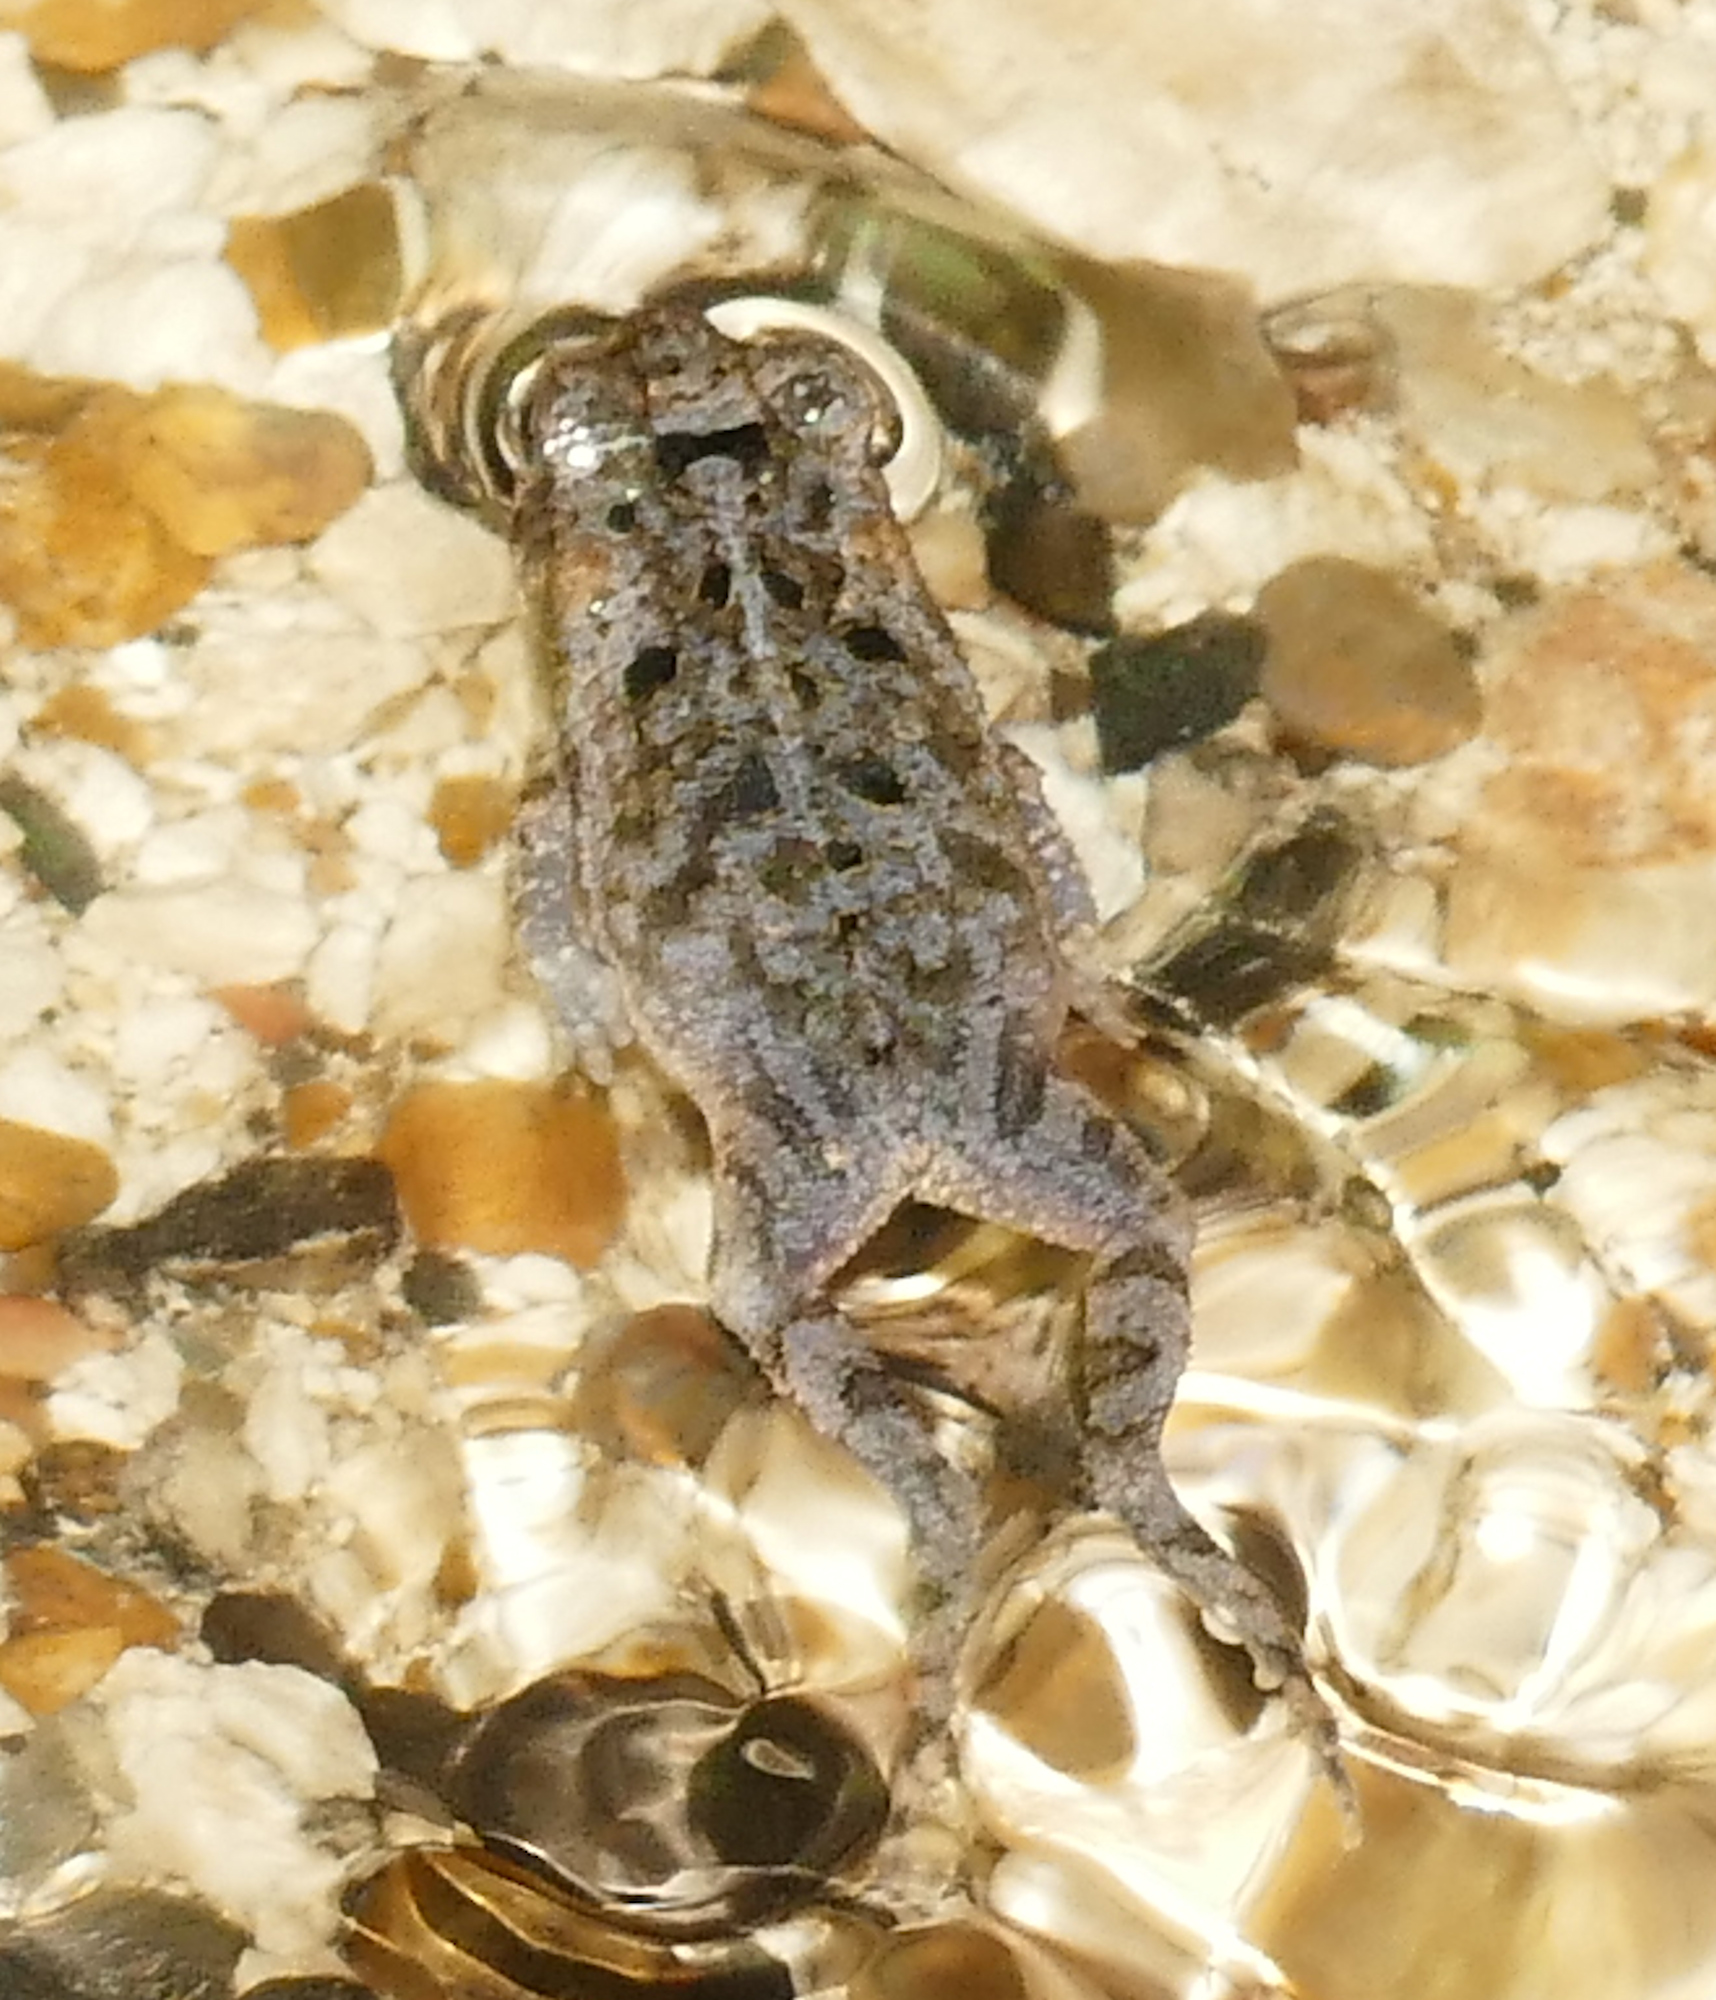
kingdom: Animalia
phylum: Chordata
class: Amphibia
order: Anura
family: Bufonidae
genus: Incilius
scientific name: Incilius nebulifer
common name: Gulf coast toad
